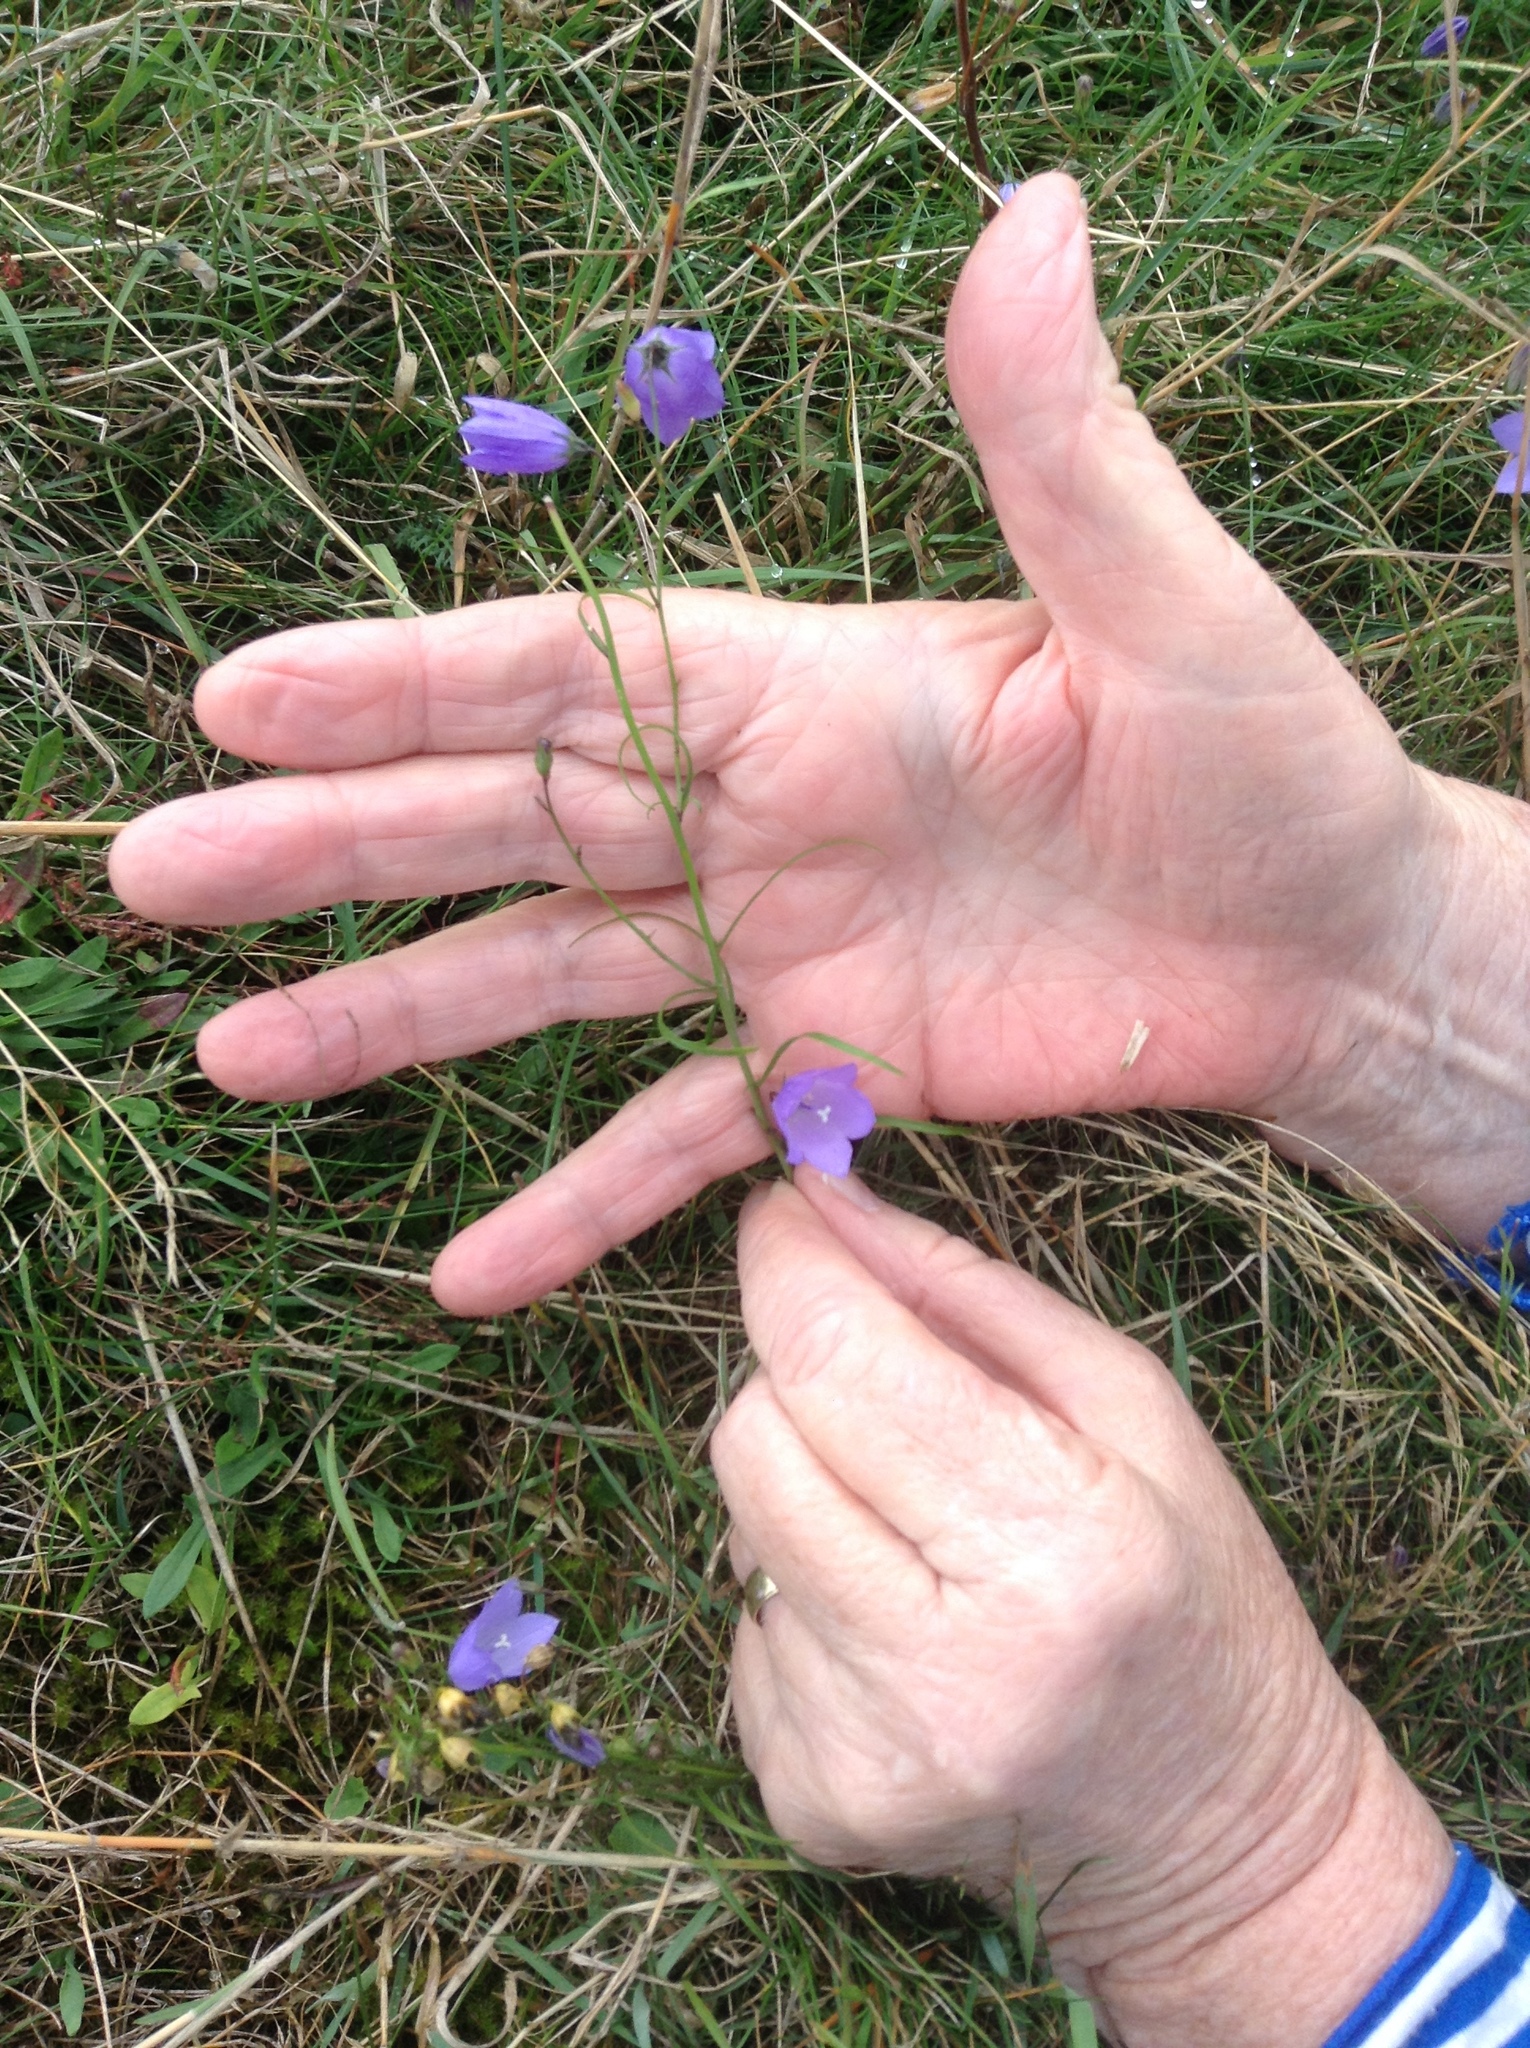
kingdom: Plantae
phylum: Tracheophyta
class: Magnoliopsida
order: Asterales
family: Campanulaceae
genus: Campanula
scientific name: Campanula rotundifolia
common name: Harebell
